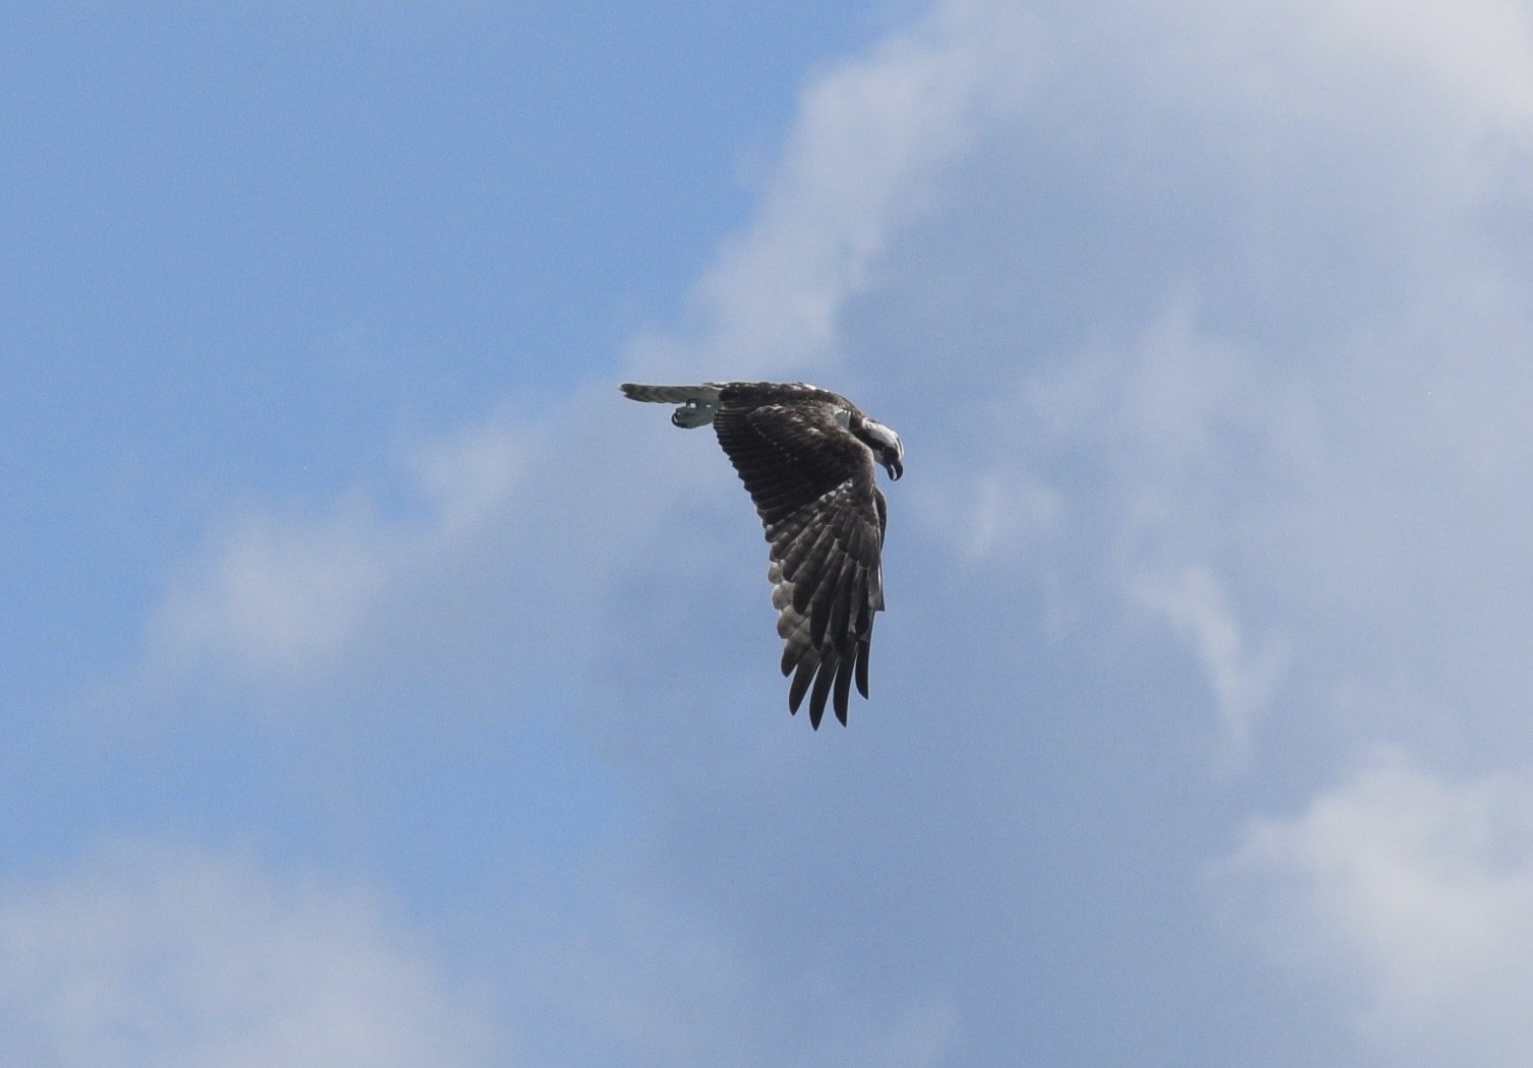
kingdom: Animalia
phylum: Chordata
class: Aves
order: Accipitriformes
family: Pandionidae
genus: Pandion
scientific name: Pandion haliaetus
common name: Osprey
